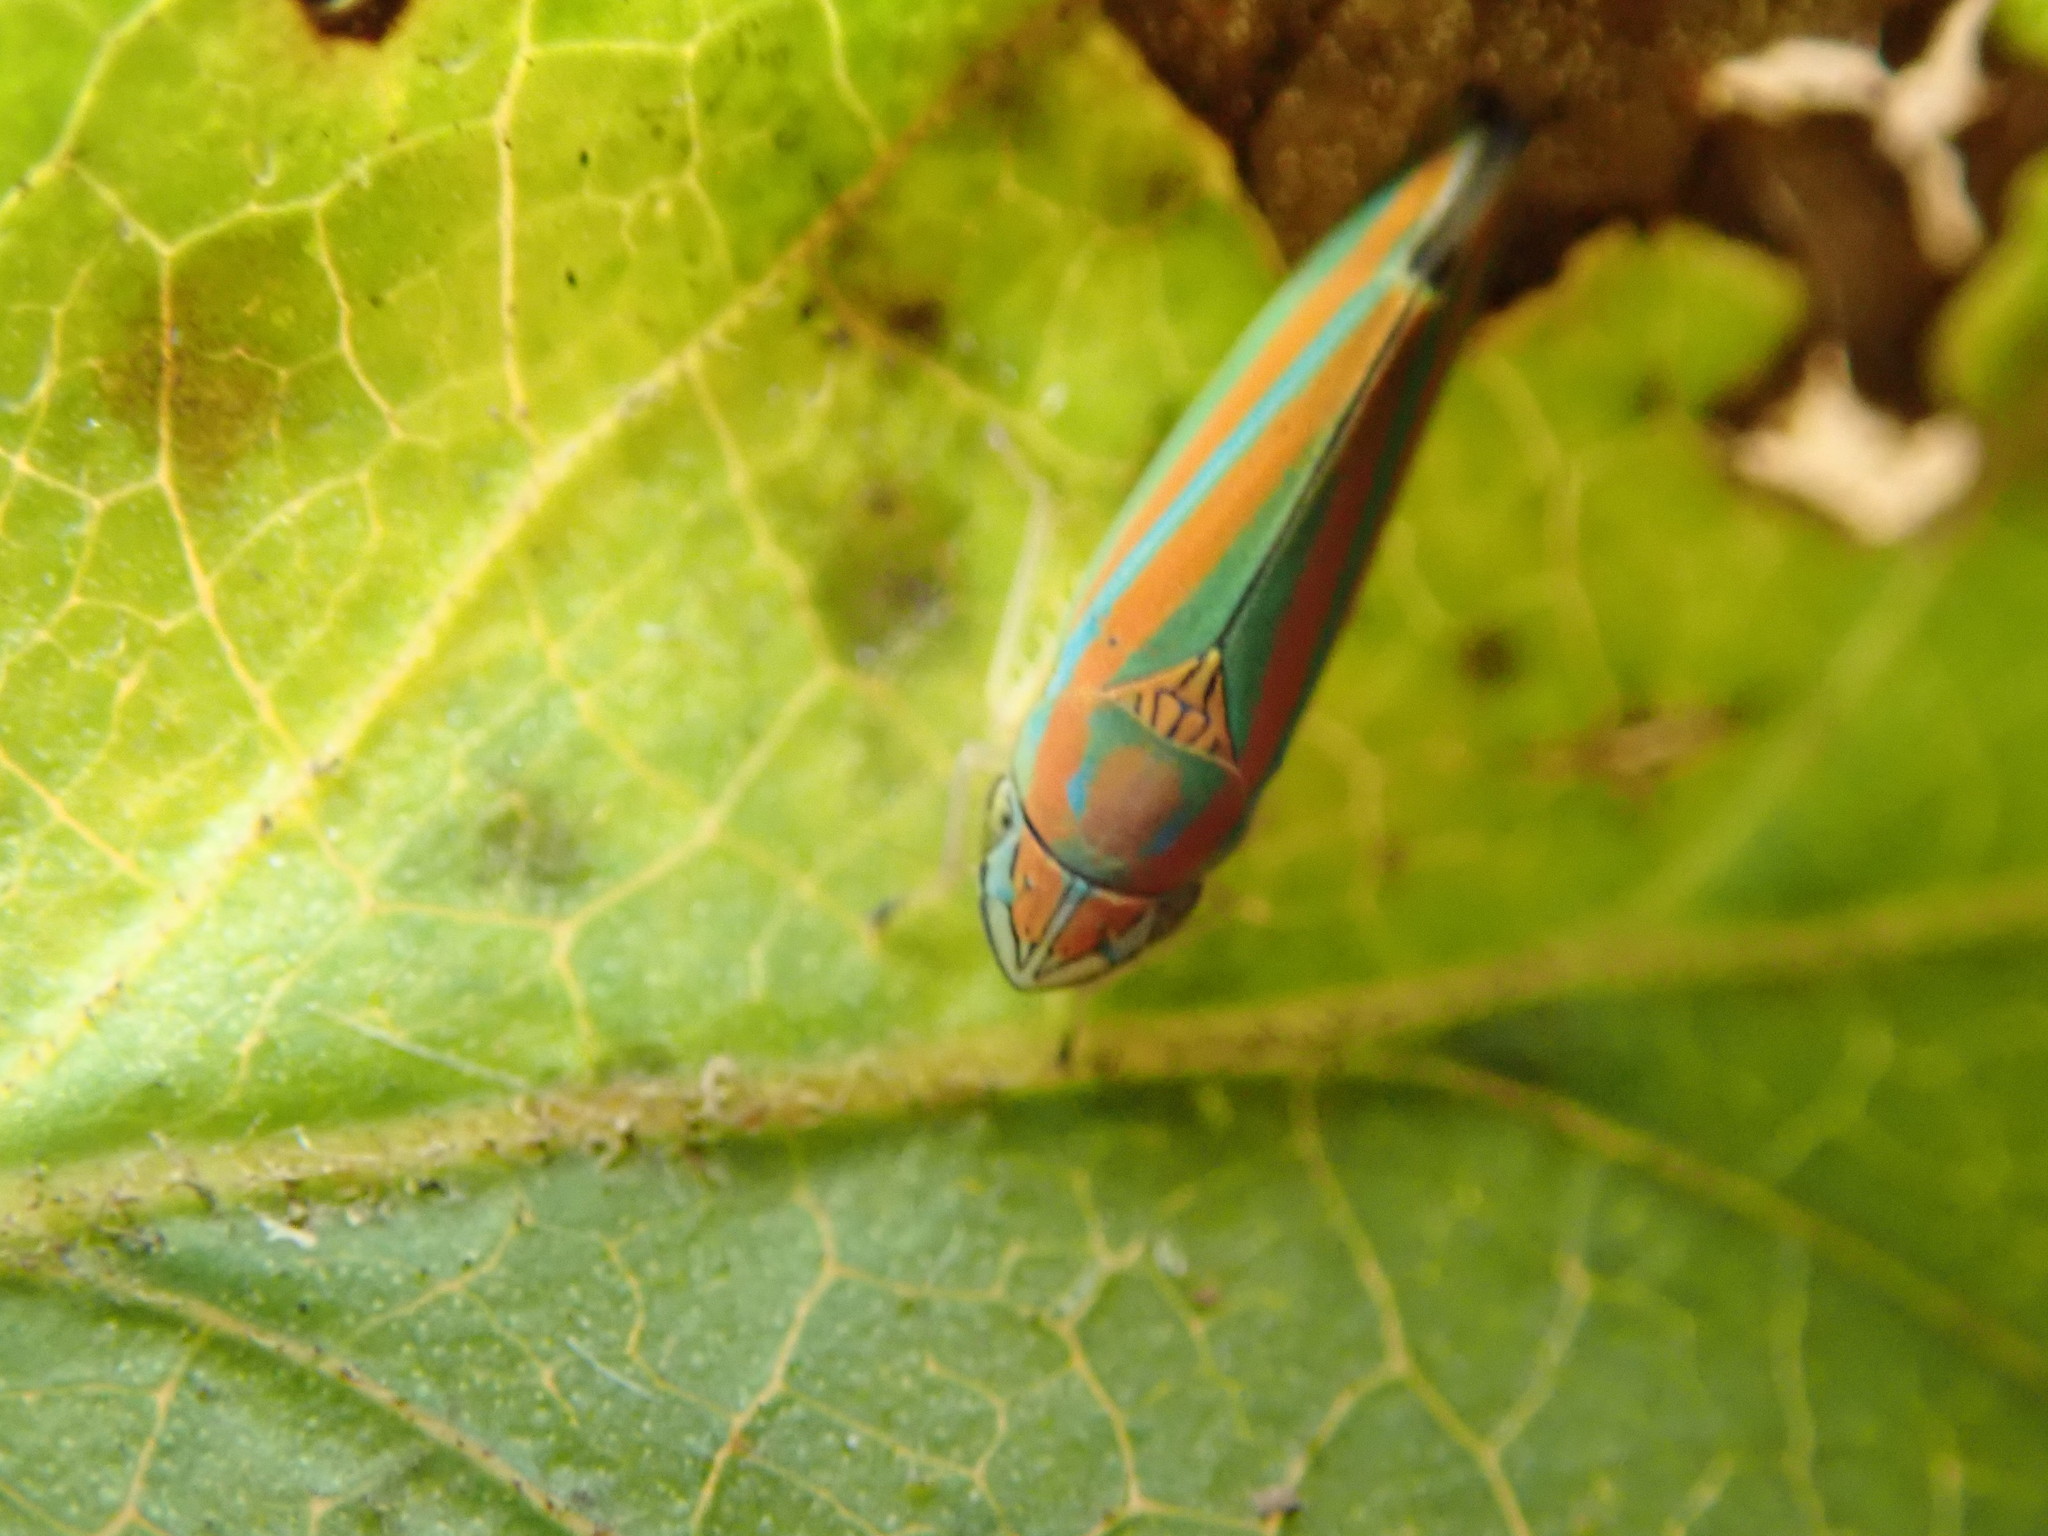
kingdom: Animalia
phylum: Arthropoda
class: Insecta
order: Hemiptera
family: Cicadellidae
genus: Graphocephala
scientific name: Graphocephala versuta
